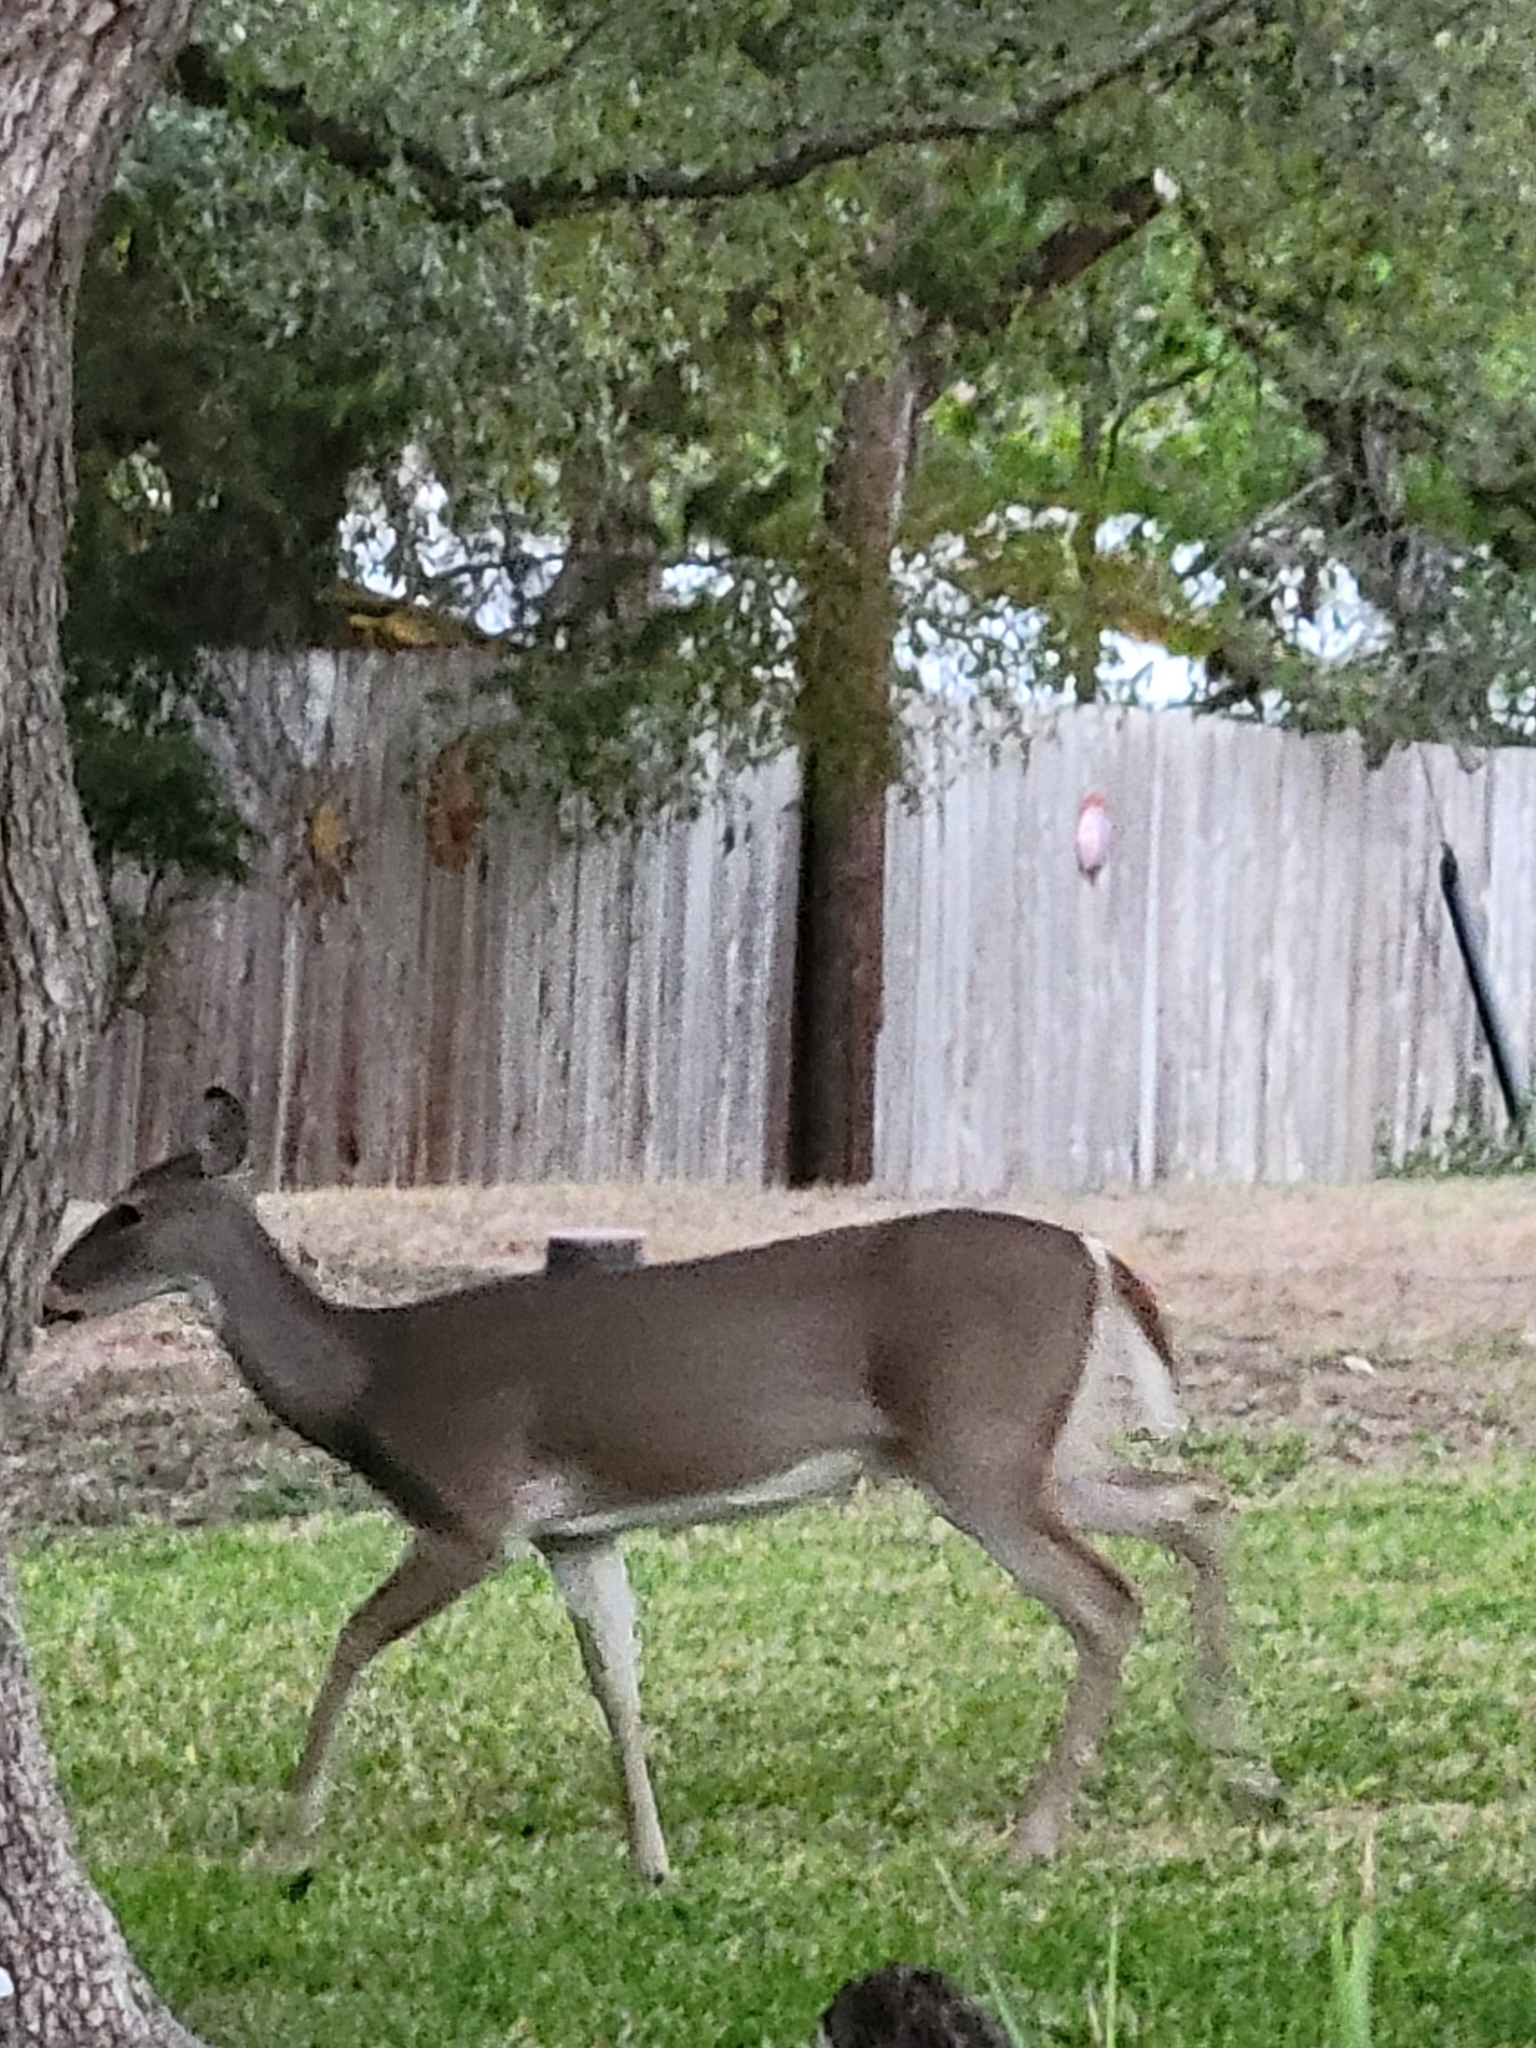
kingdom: Animalia
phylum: Chordata
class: Mammalia
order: Artiodactyla
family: Cervidae
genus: Odocoileus
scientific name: Odocoileus virginianus
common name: White-tailed deer
